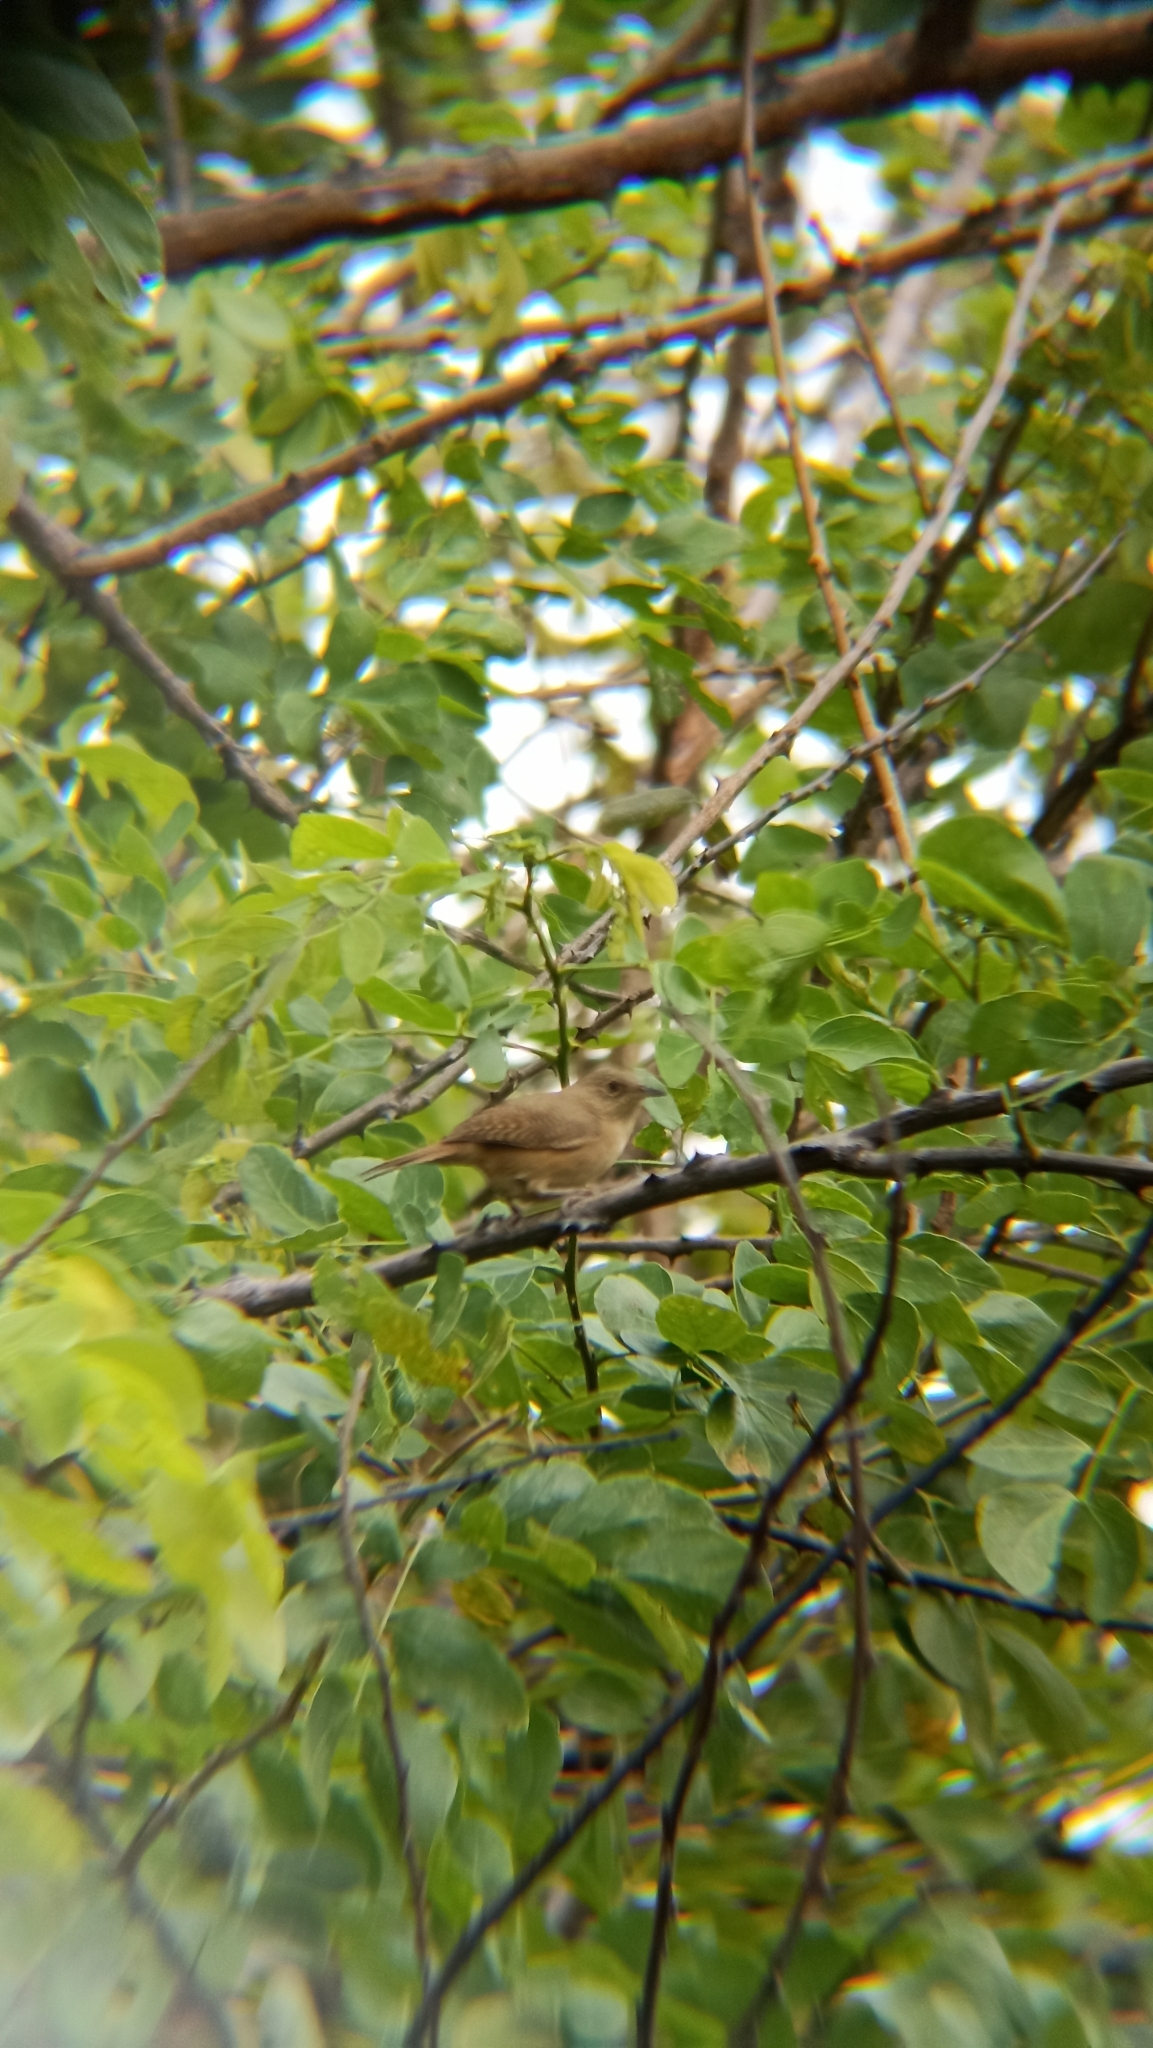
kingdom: Animalia
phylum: Chordata
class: Aves
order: Passeriformes
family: Troglodytidae
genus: Troglodytes
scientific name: Troglodytes aedon
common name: House wren
